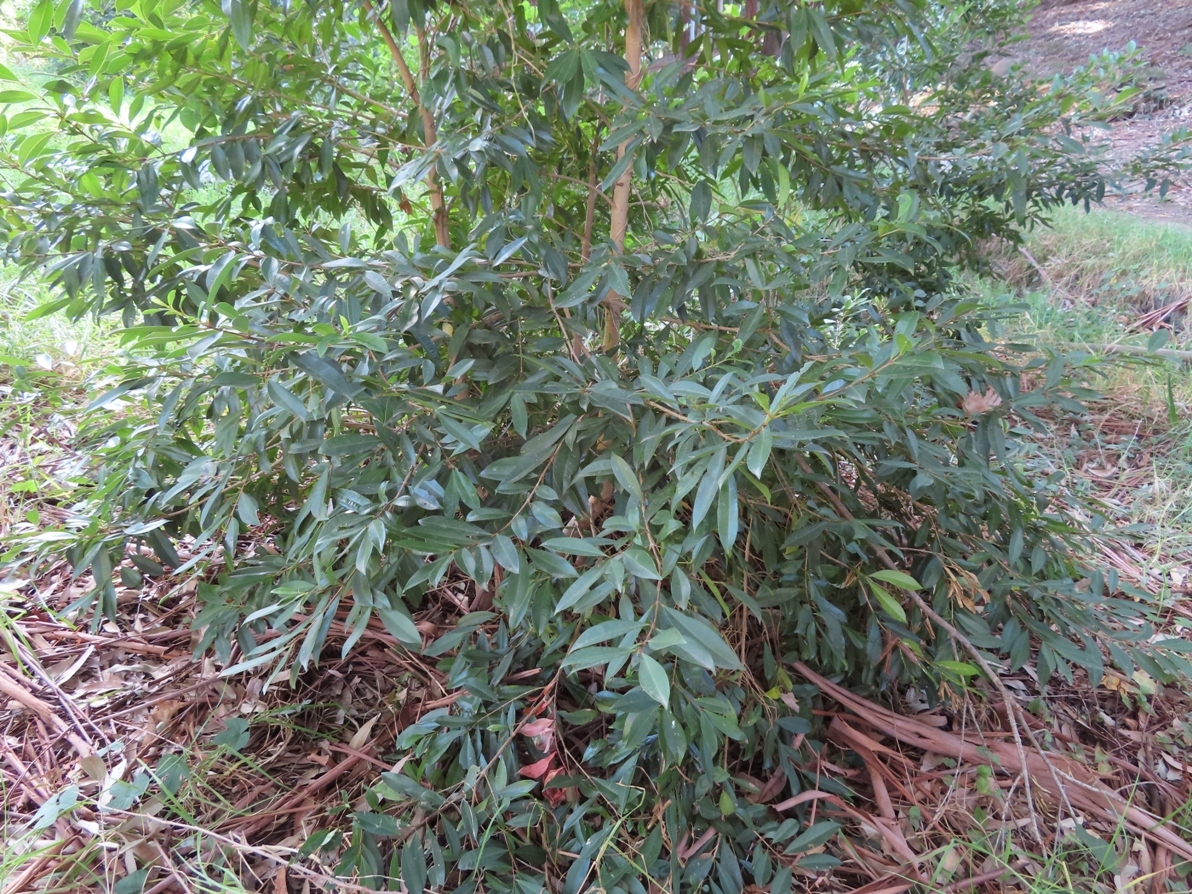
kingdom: Plantae
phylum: Tracheophyta
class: Magnoliopsida
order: Myrtales
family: Myrtaceae
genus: Syzygium
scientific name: Syzygium australe
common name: Australian brush-cherry
